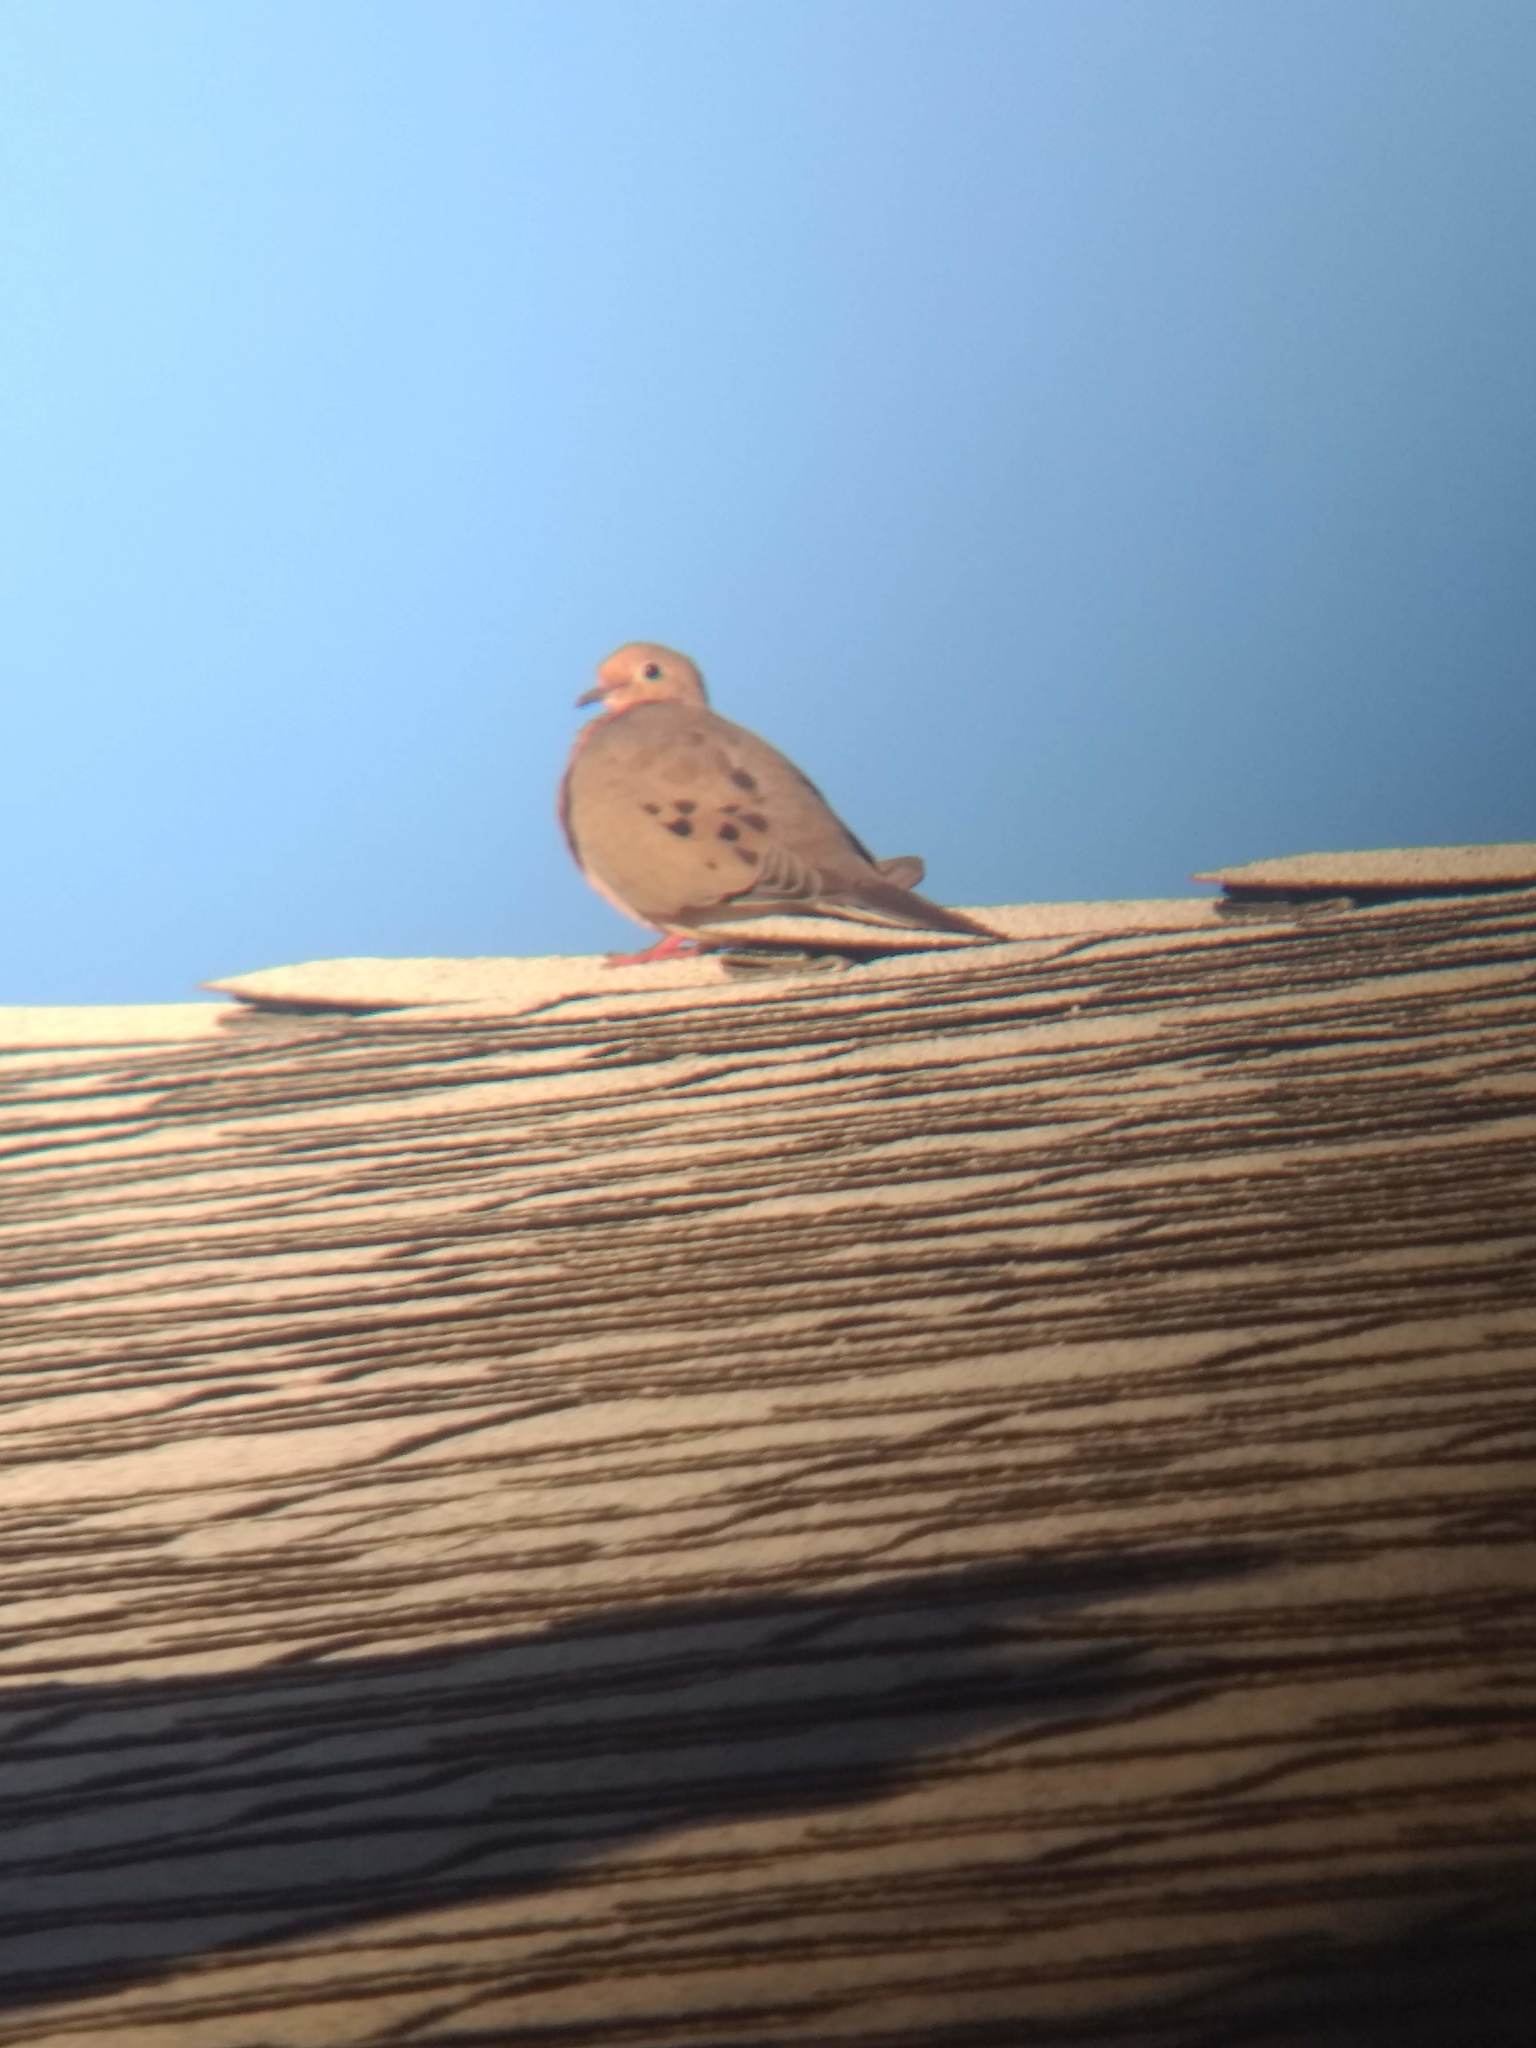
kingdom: Animalia
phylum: Chordata
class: Aves
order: Columbiformes
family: Columbidae
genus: Zenaida
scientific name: Zenaida macroura
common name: Mourning dove
